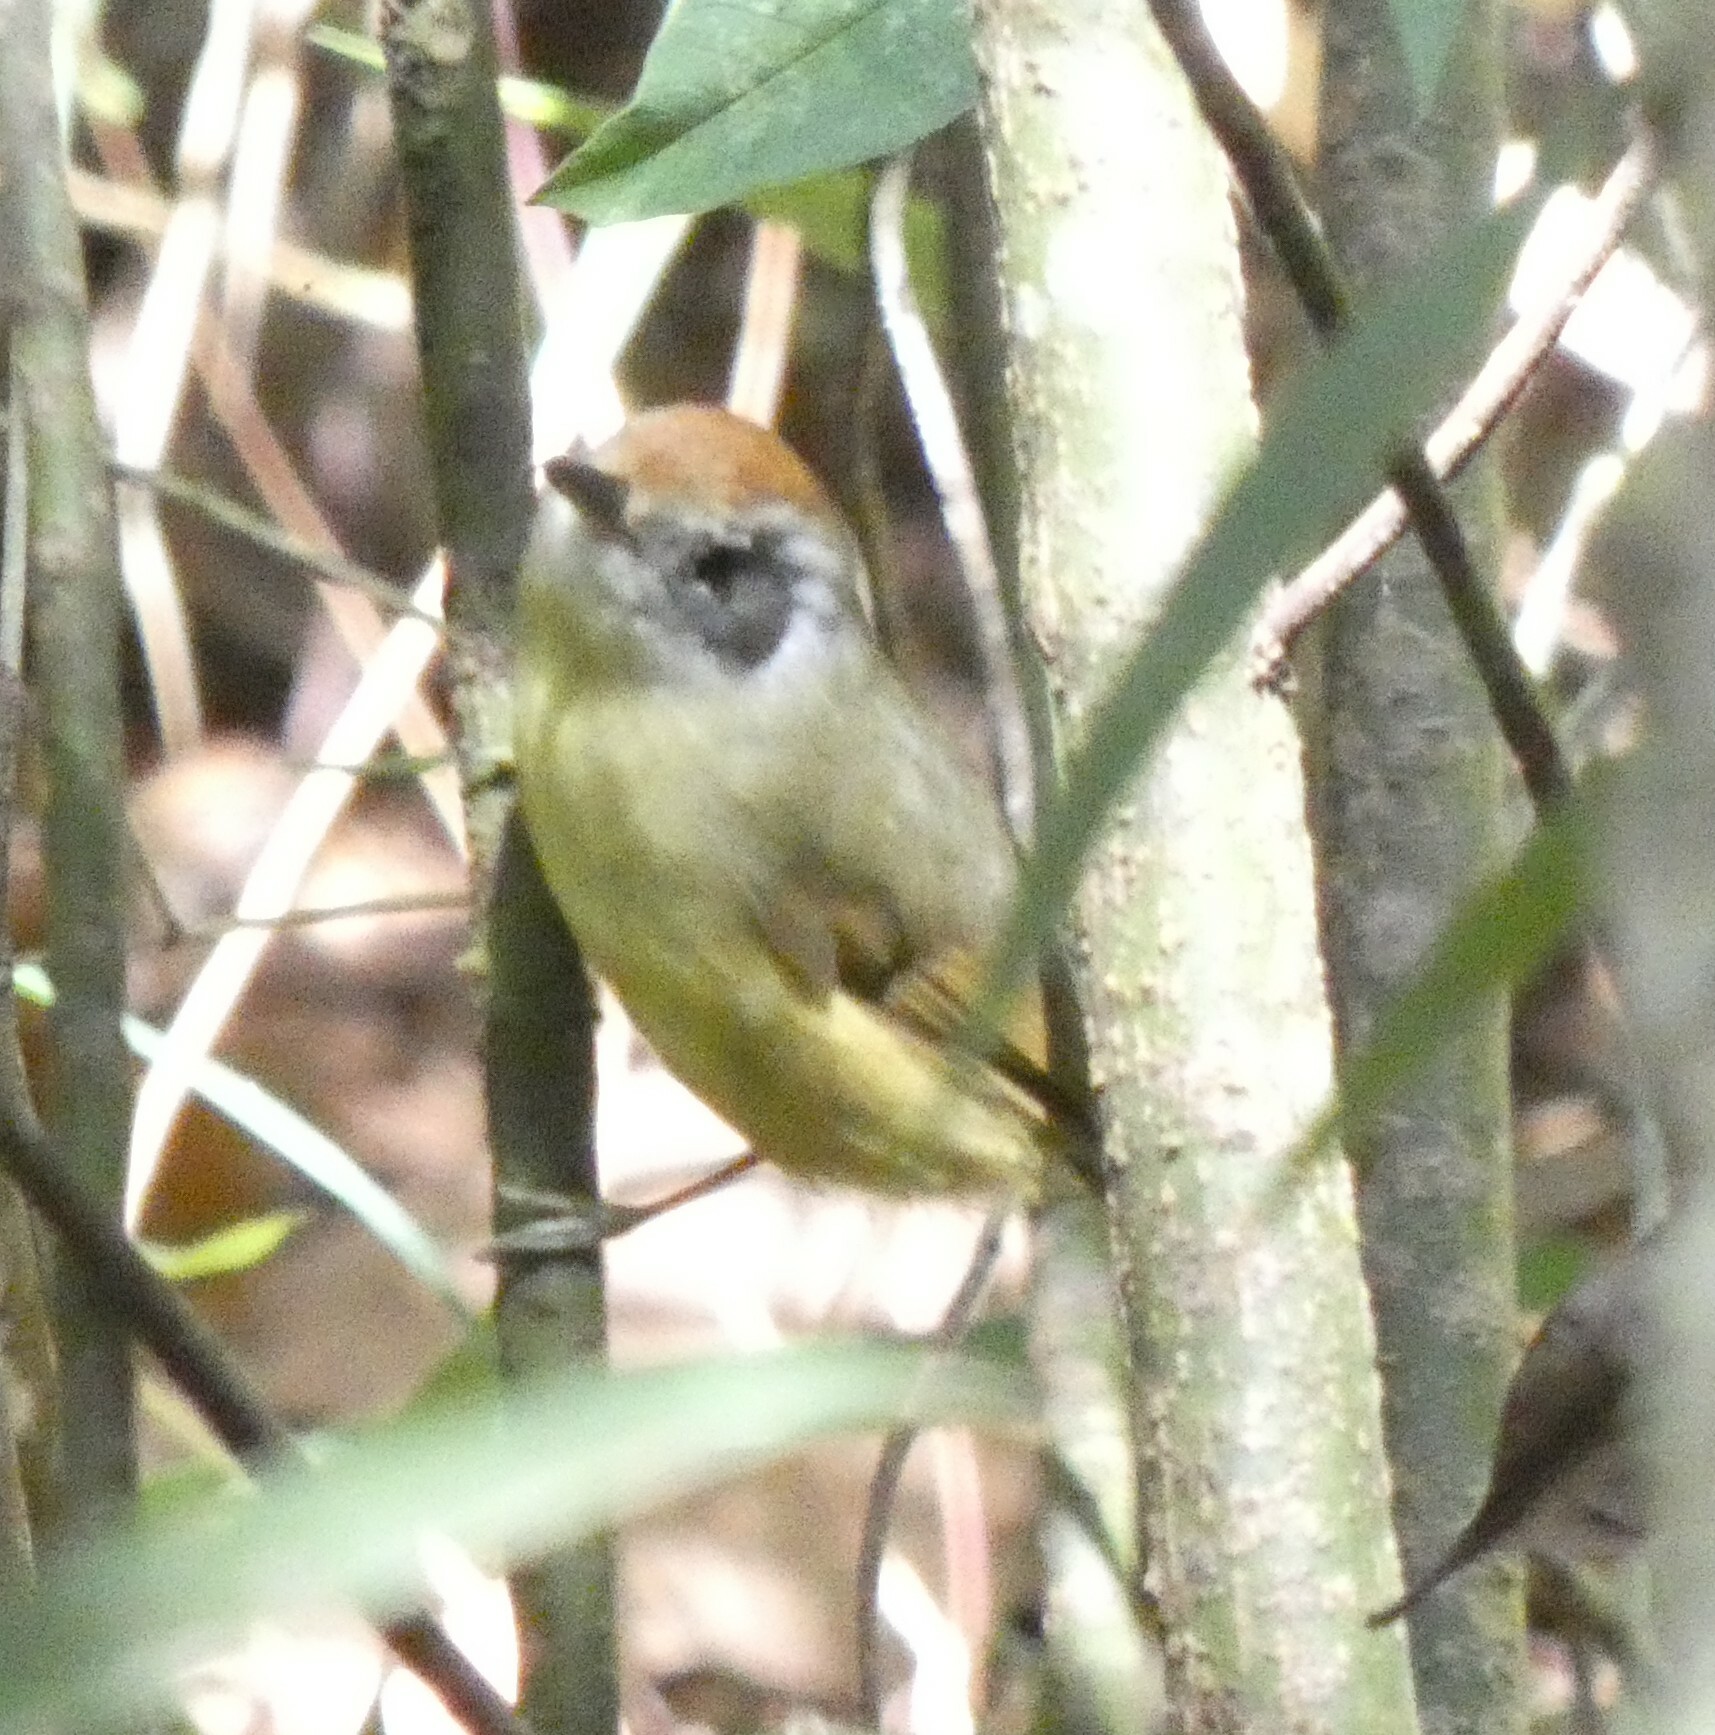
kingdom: Animalia
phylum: Chordata
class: Aves
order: Passeriformes
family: Thamnophilidae
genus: Dysithamnus
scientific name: Dysithamnus mentalis
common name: Plain antvireo
